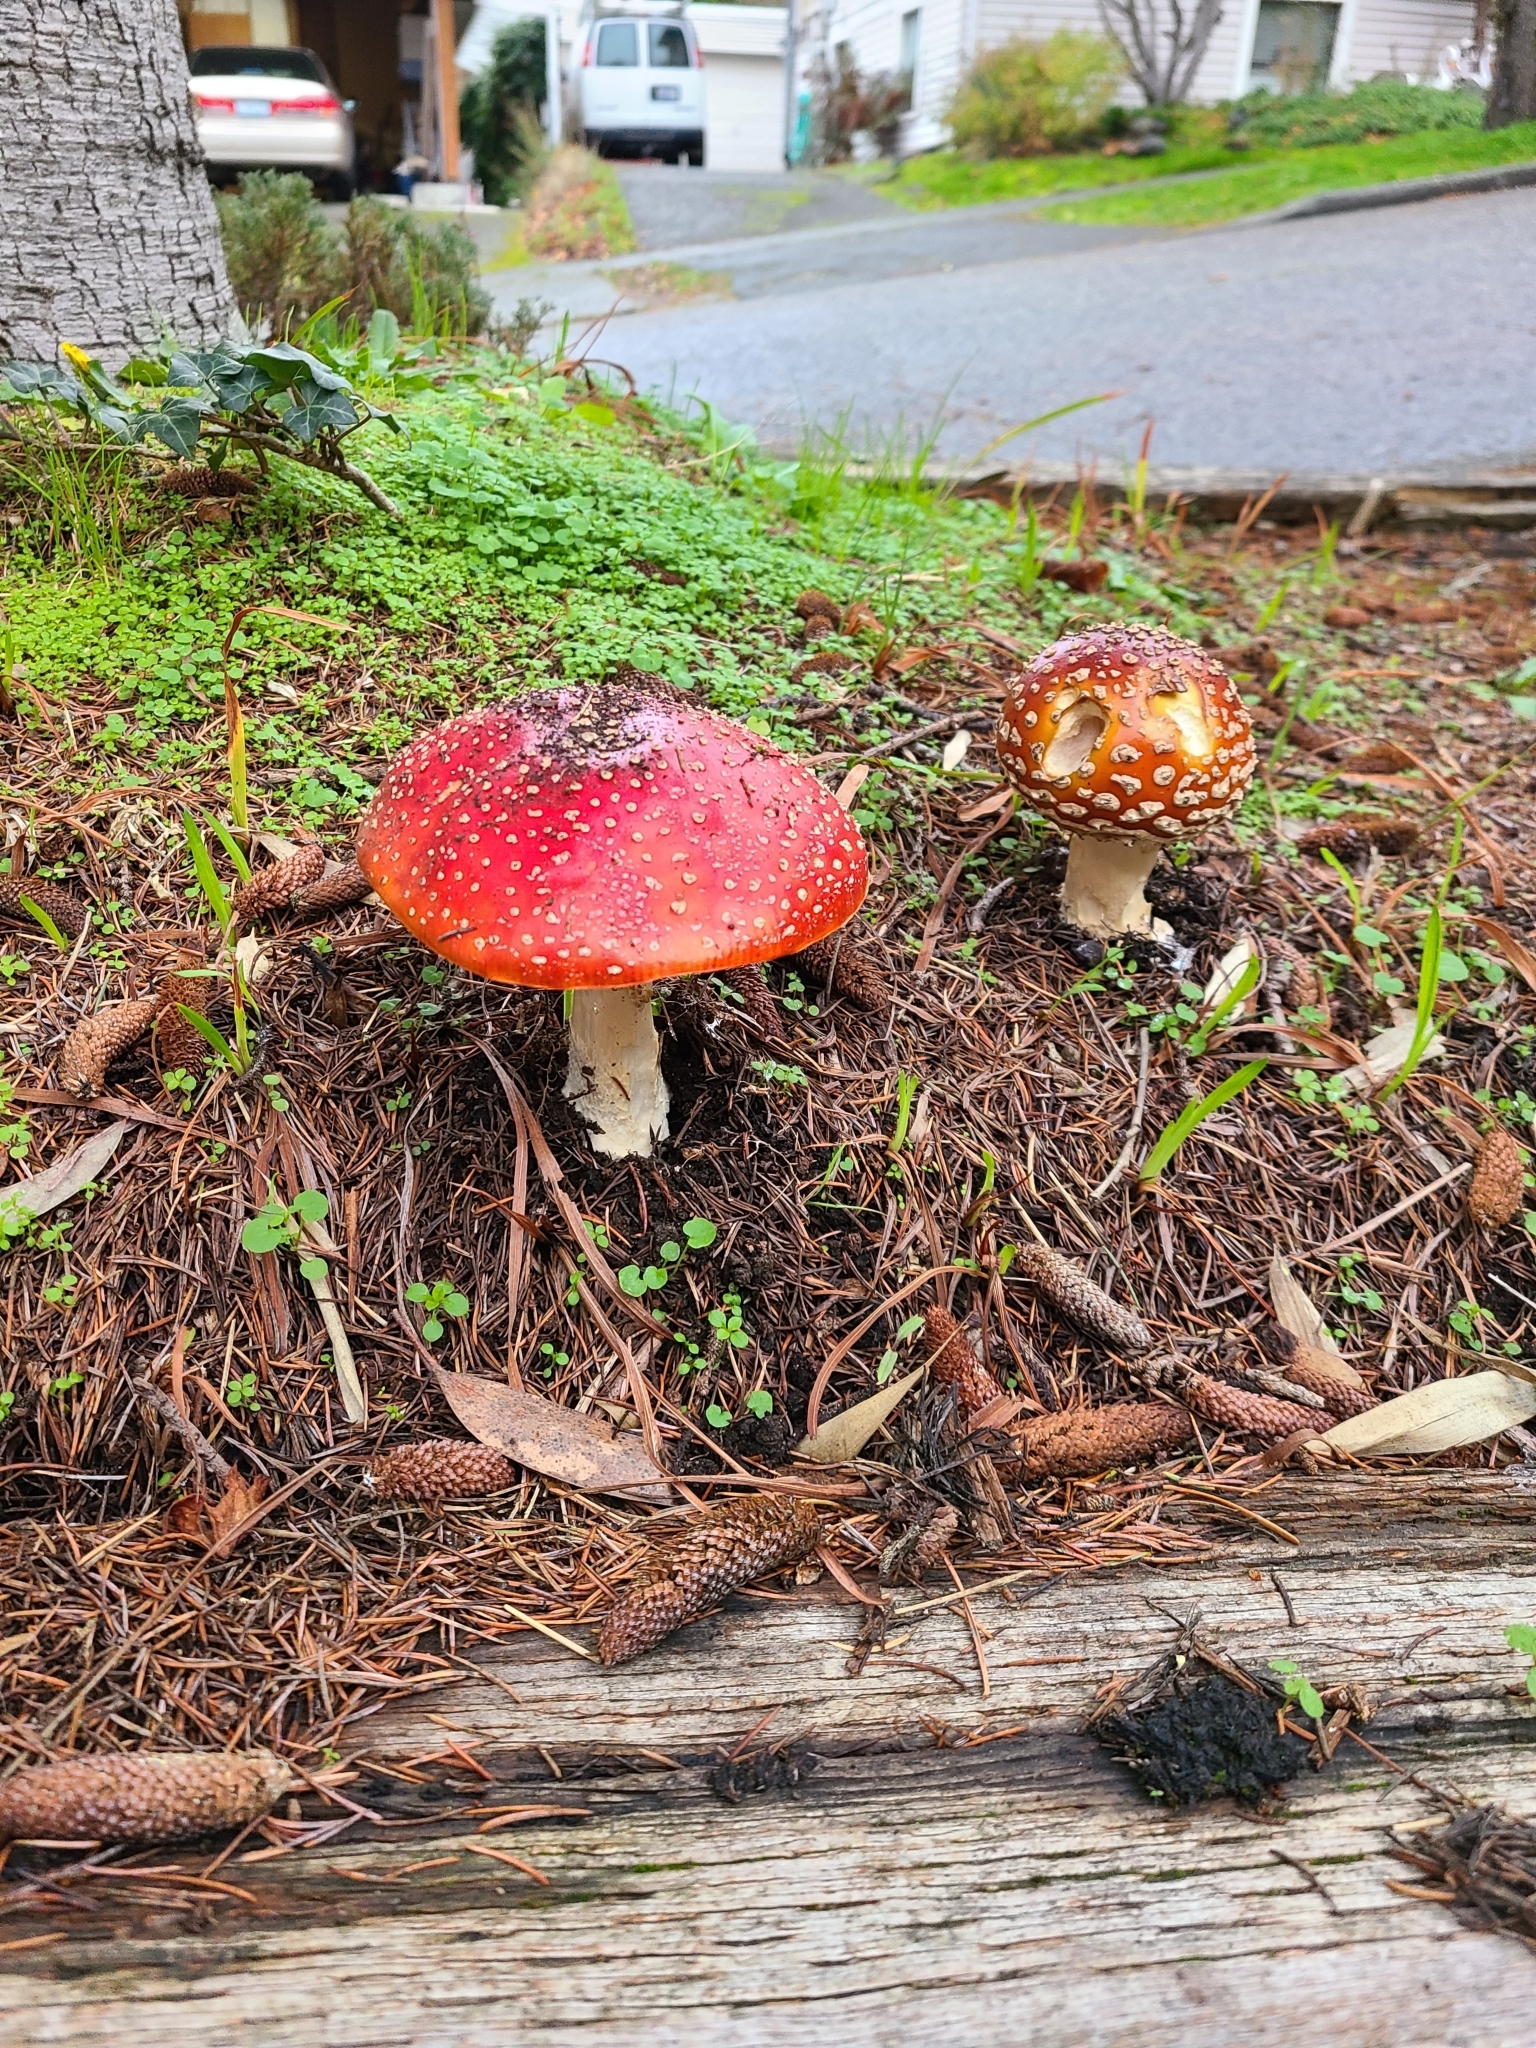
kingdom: Fungi
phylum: Basidiomycota
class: Agaricomycetes
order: Agaricales
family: Amanitaceae
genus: Amanita
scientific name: Amanita muscaria
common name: Fly agaric
